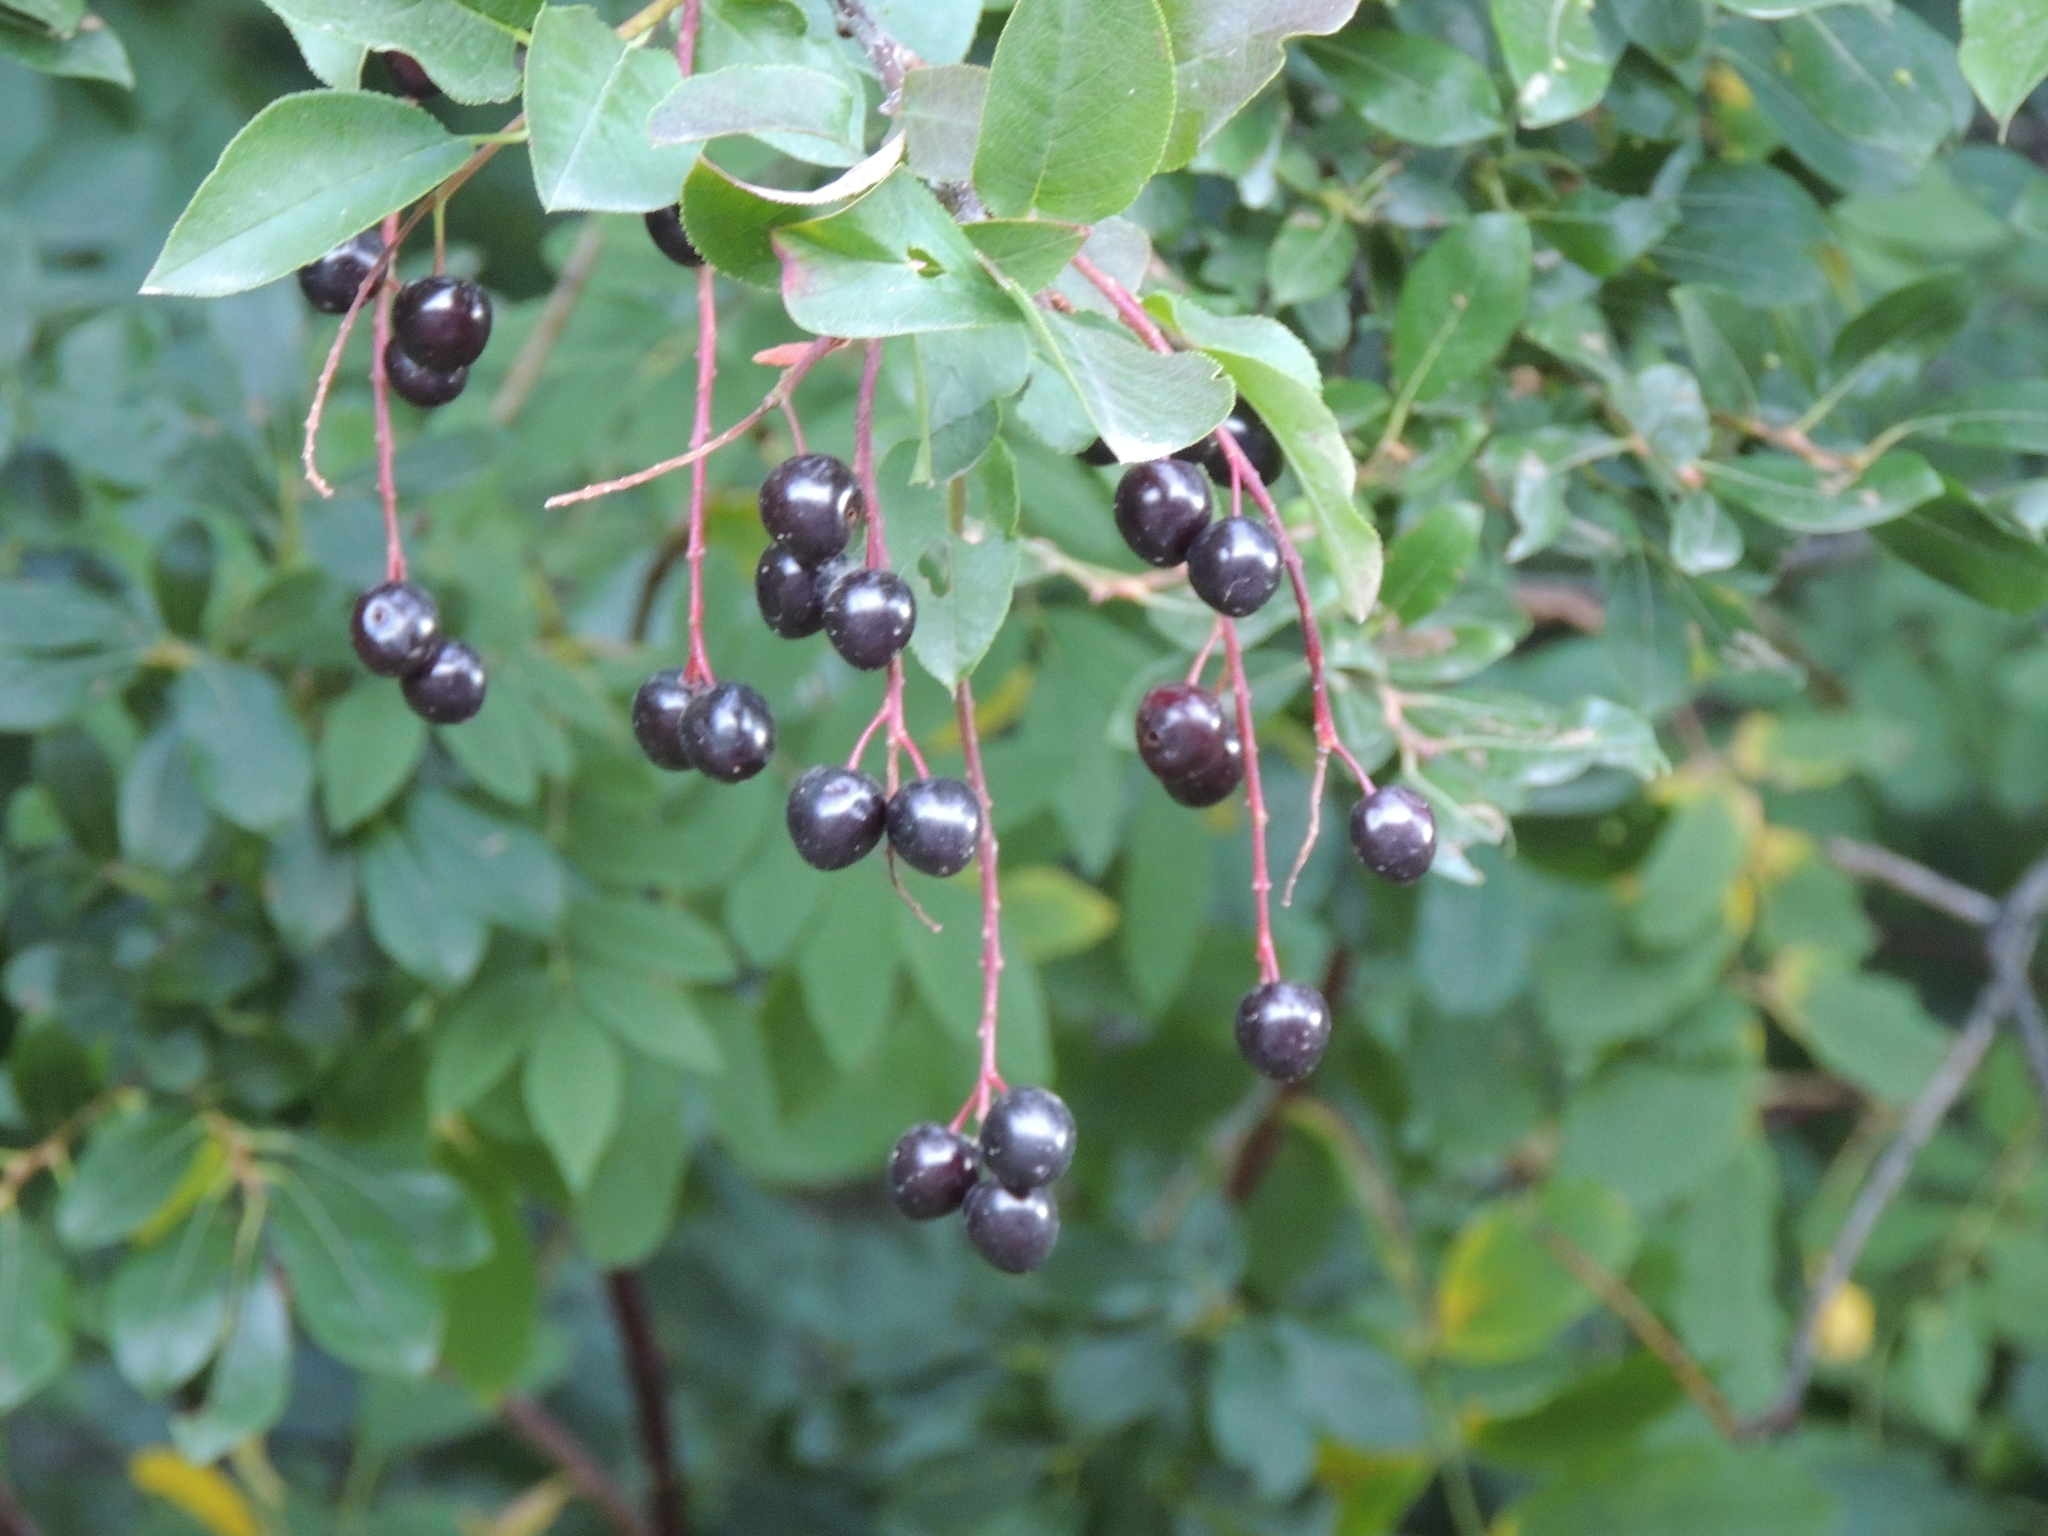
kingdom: Plantae
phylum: Tracheophyta
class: Magnoliopsida
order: Rosales
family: Rosaceae
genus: Prunus
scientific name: Prunus virginiana
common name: Chokecherry
